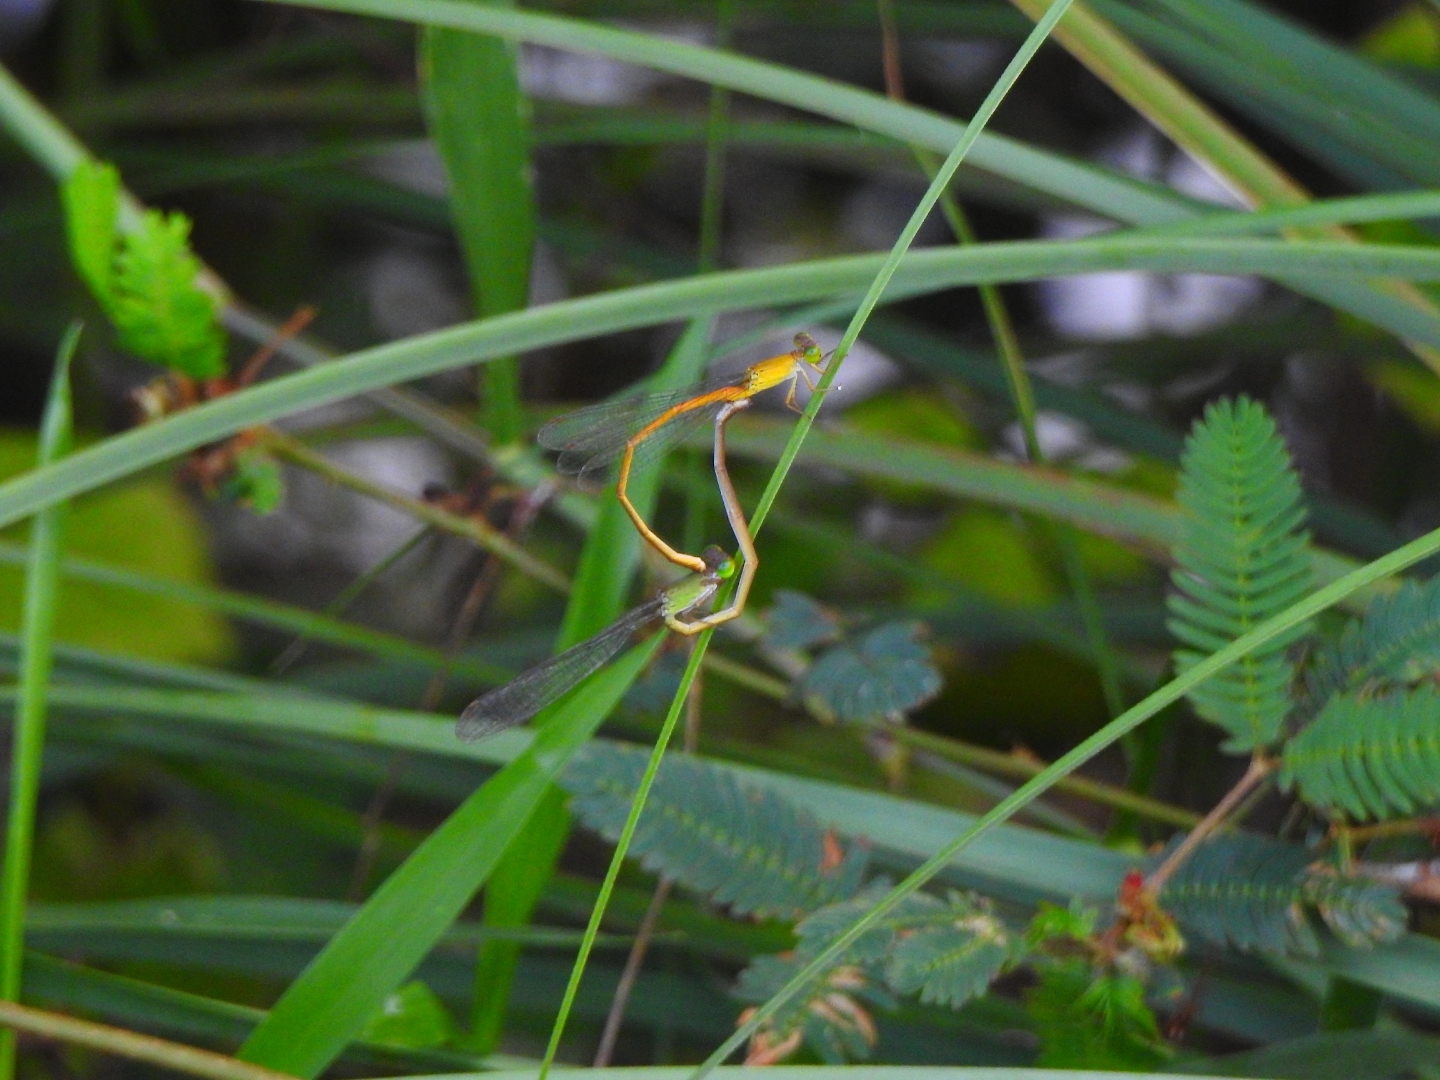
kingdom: Animalia
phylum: Arthropoda
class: Insecta
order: Odonata
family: Coenagrionidae
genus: Ceriagrion
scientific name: Ceriagrion rubiae
